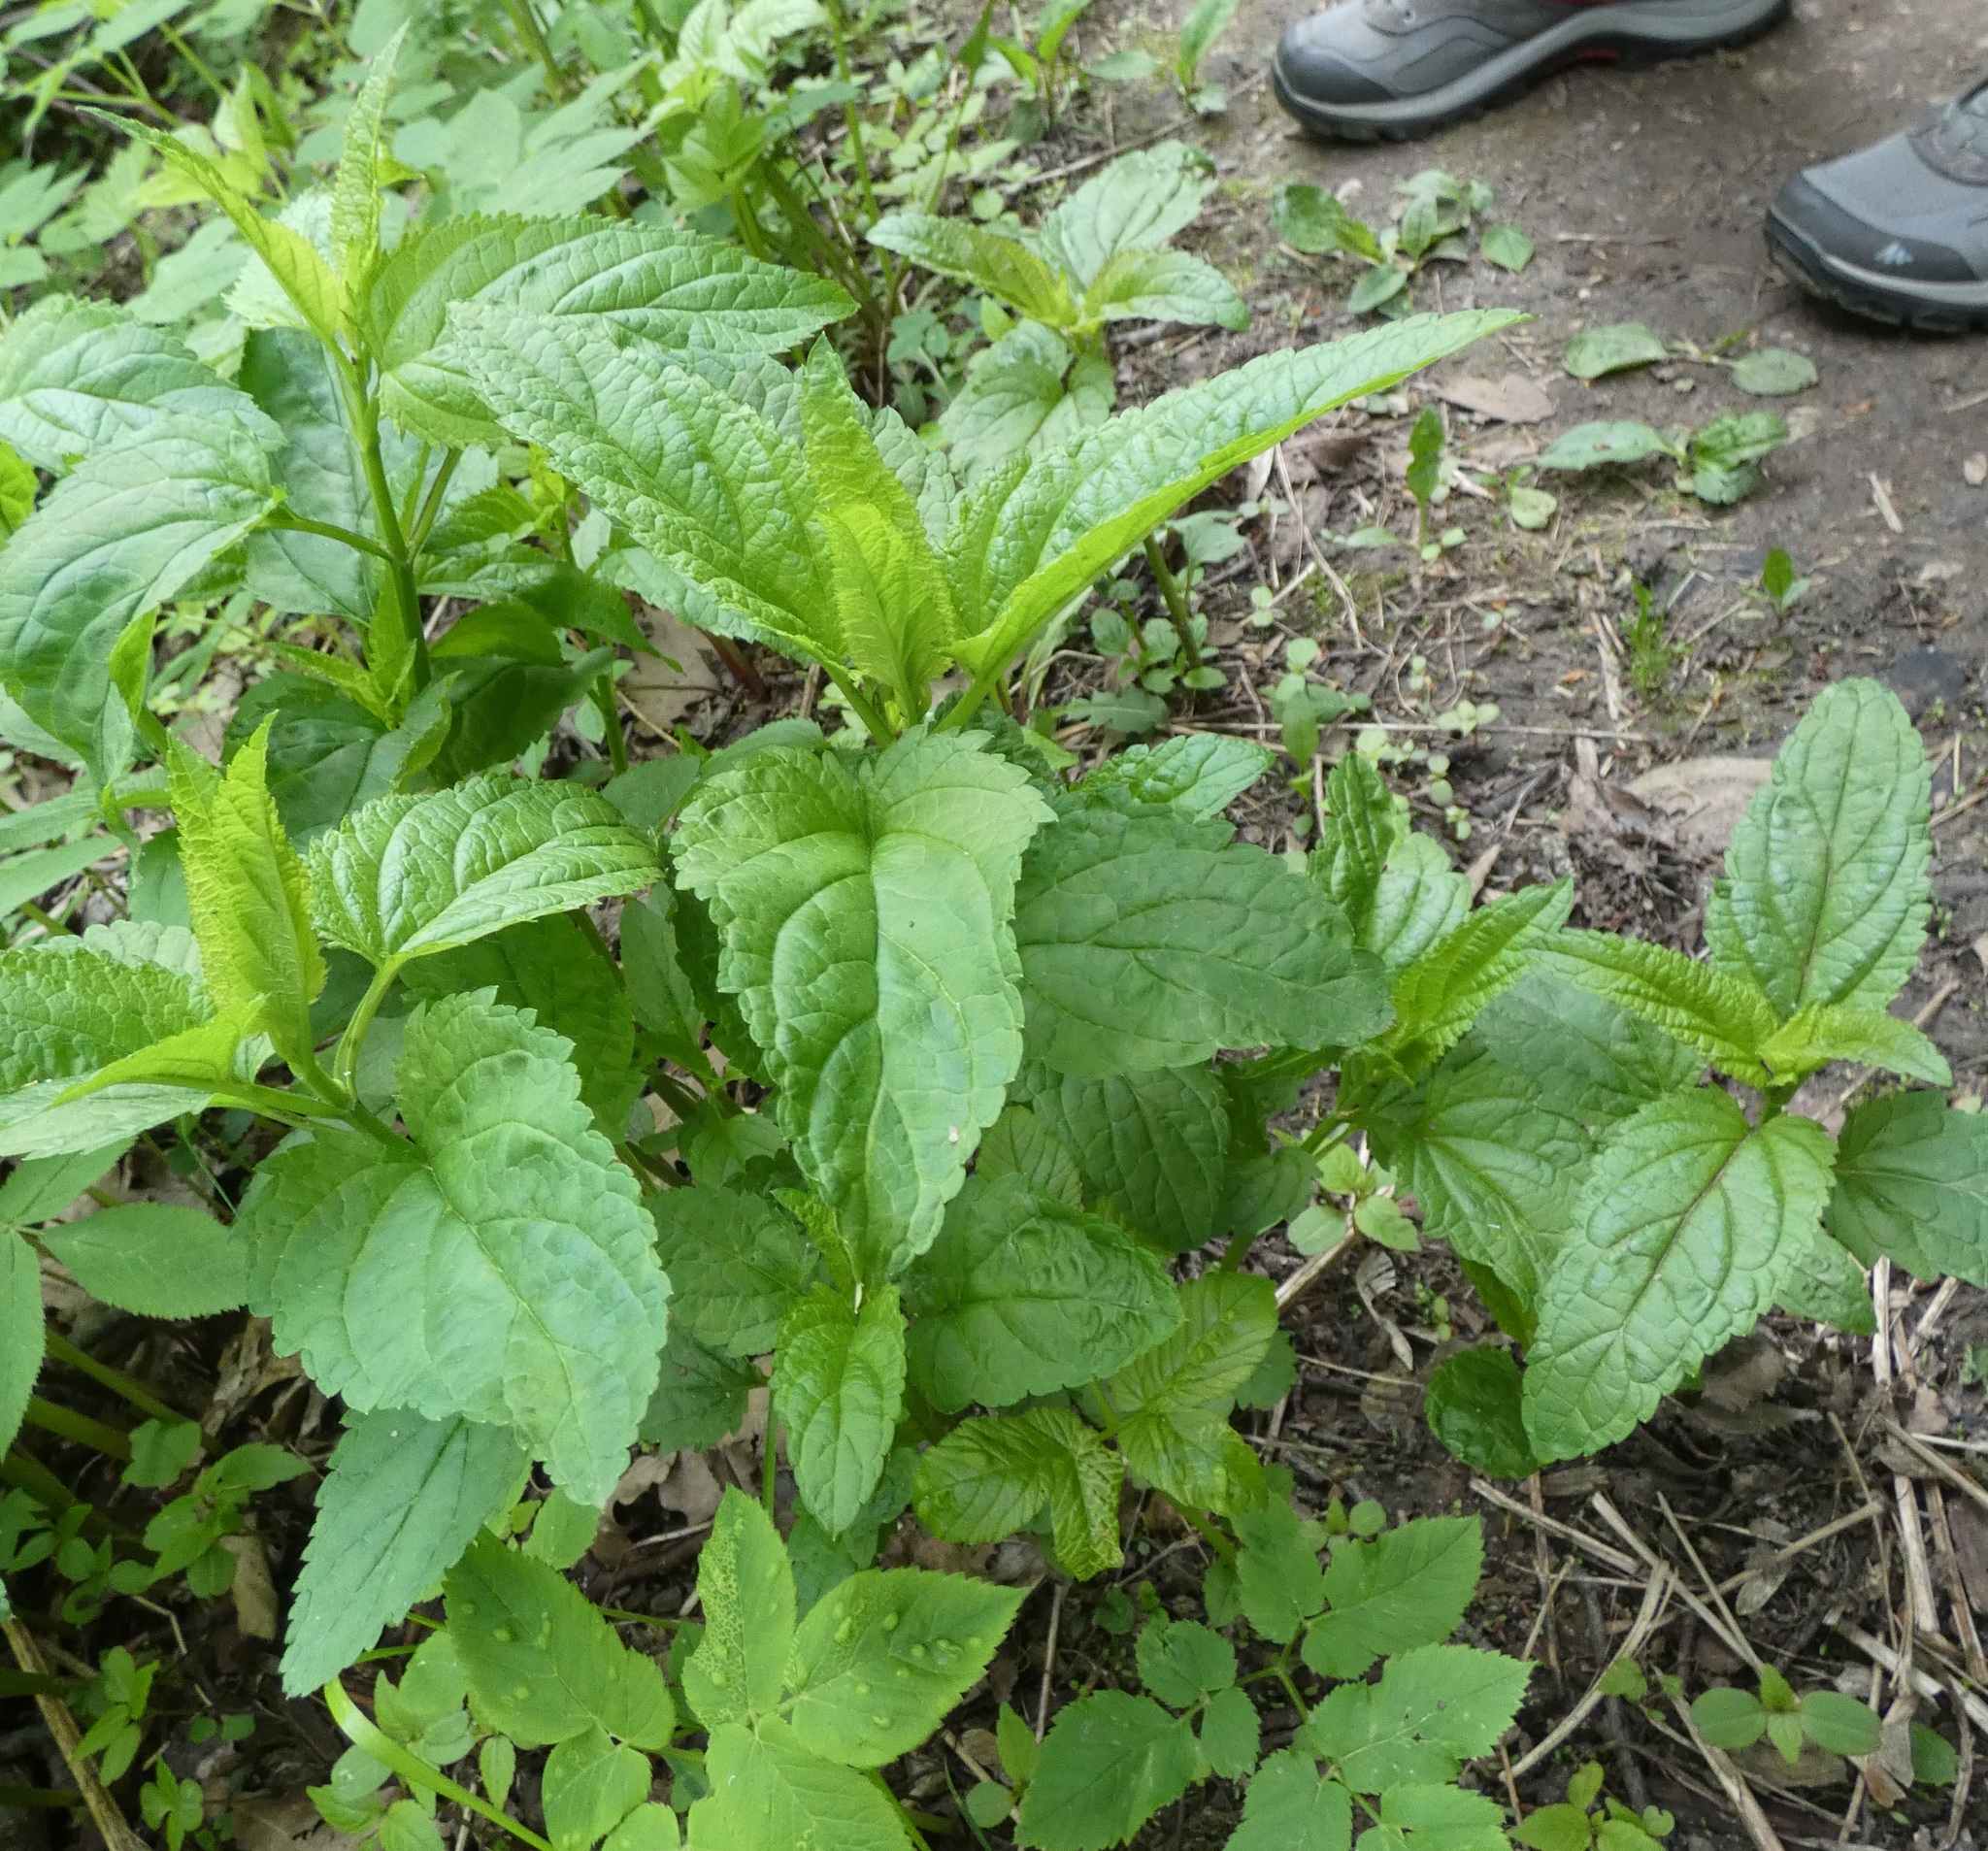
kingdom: Plantae
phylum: Tracheophyta
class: Magnoliopsida
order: Lamiales
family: Scrophulariaceae
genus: Scrophularia
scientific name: Scrophularia nodosa
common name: Common figwort
